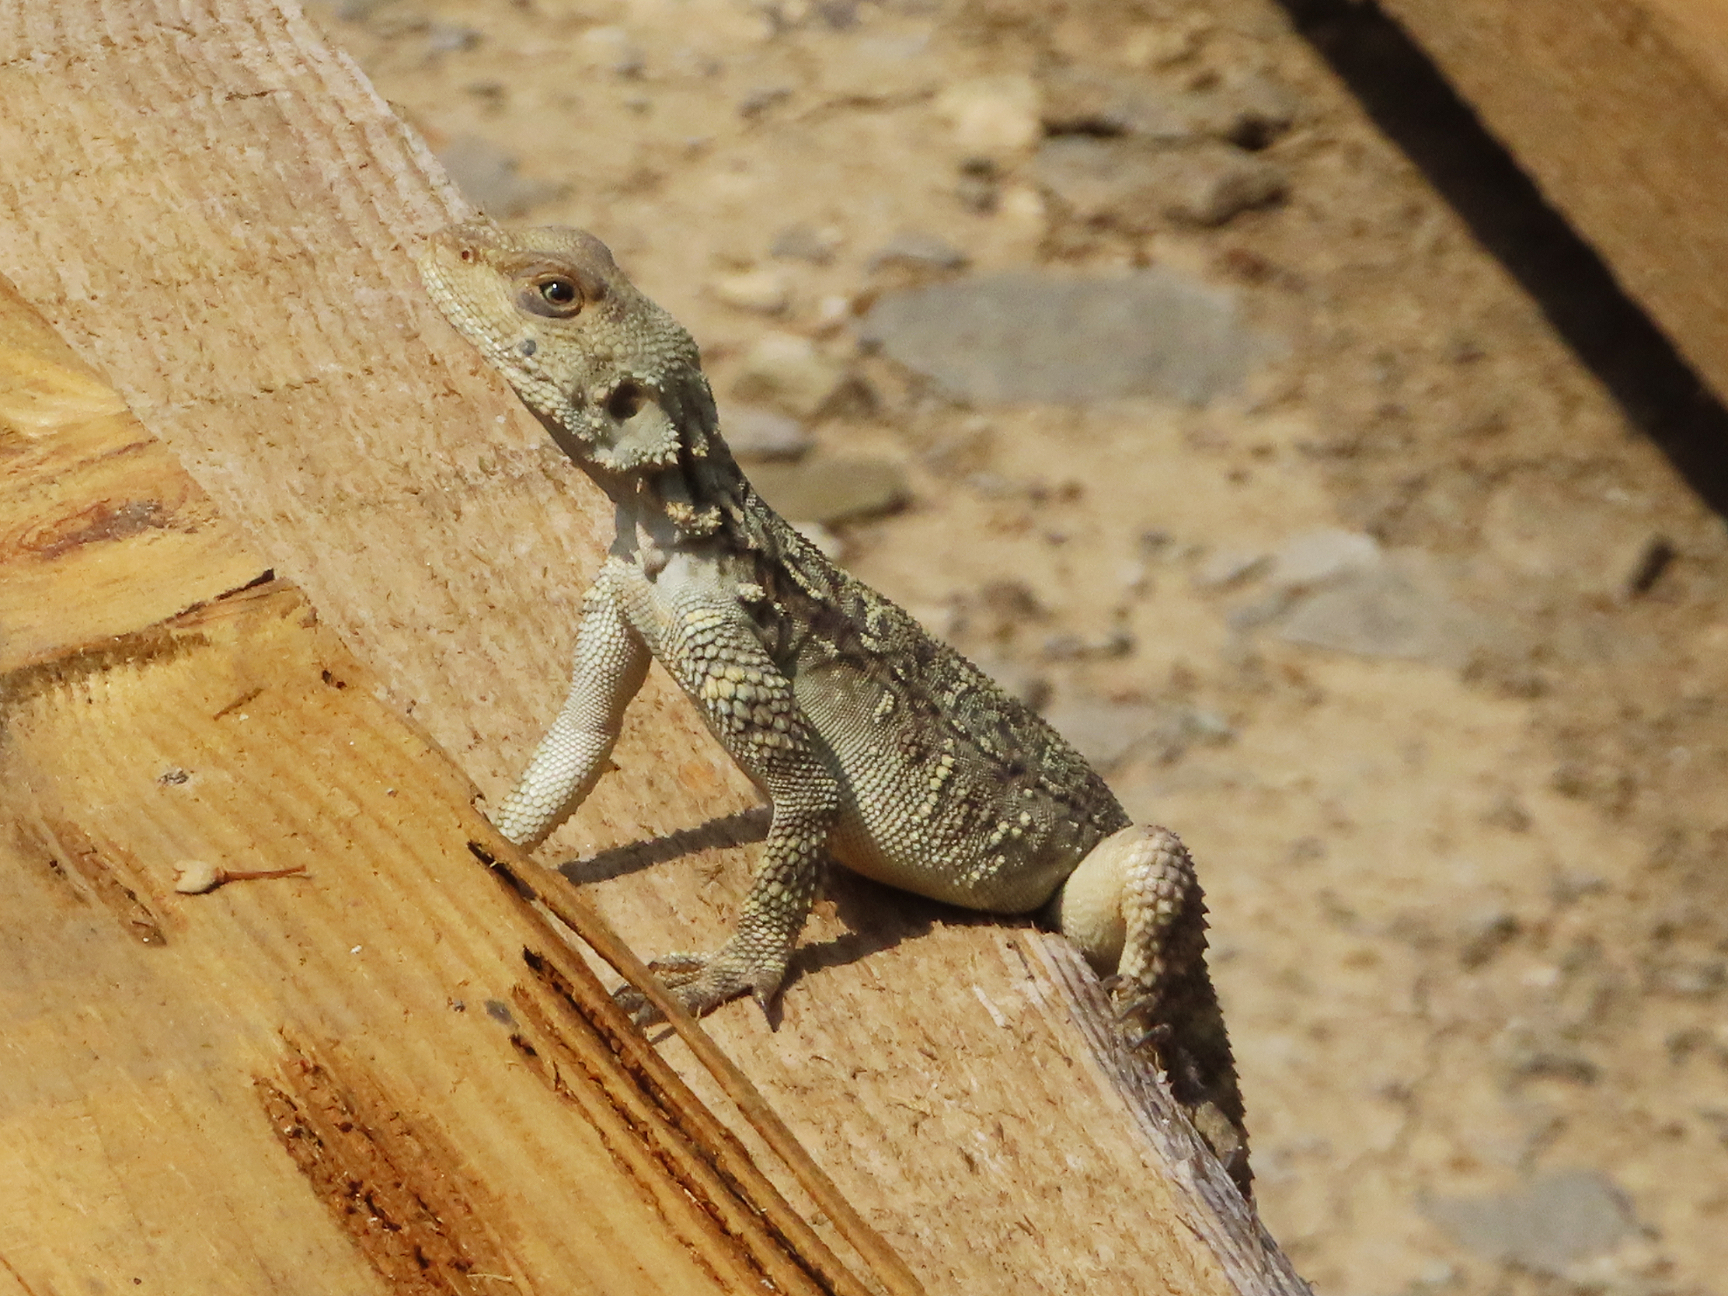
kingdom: Animalia
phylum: Chordata
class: Squamata
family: Agamidae
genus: Paralaudakia
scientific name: Paralaudakia caucasia
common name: Caucasian agama
